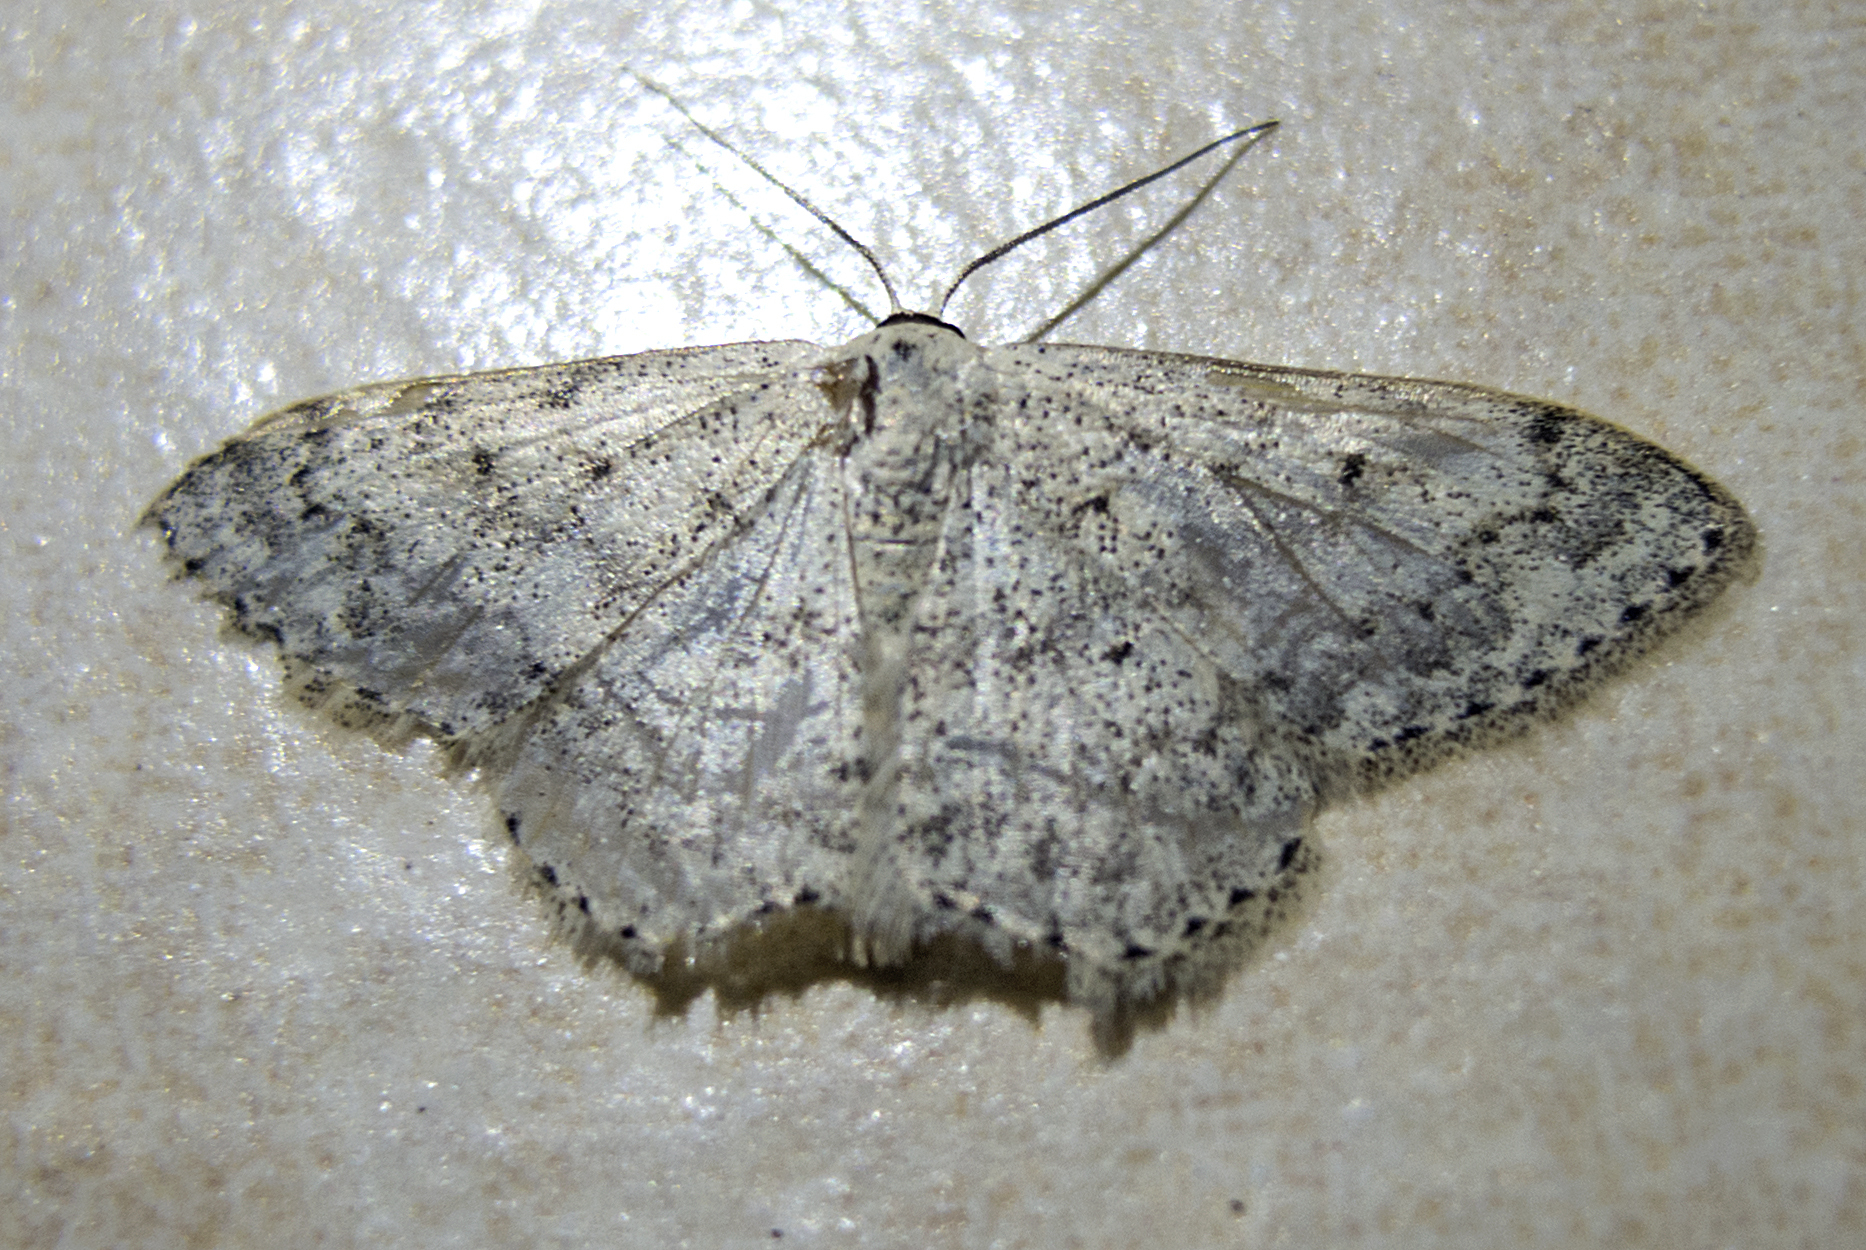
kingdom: Animalia
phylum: Arthropoda
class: Insecta
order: Lepidoptera
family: Geometridae
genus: Scopula
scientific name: Scopula marginepunctata
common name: Mullein wave
